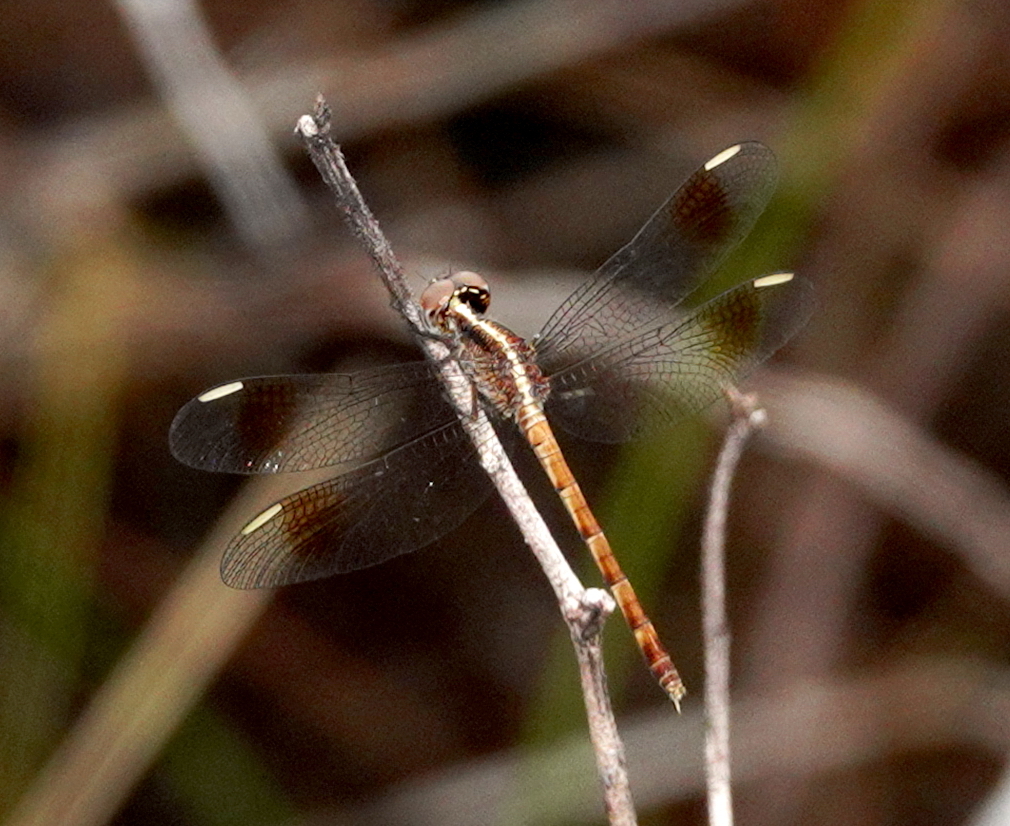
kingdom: Animalia
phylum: Arthropoda
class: Insecta
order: Odonata
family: Libellulidae
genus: Ypirangathemis
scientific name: Ypirangathemis calverti
